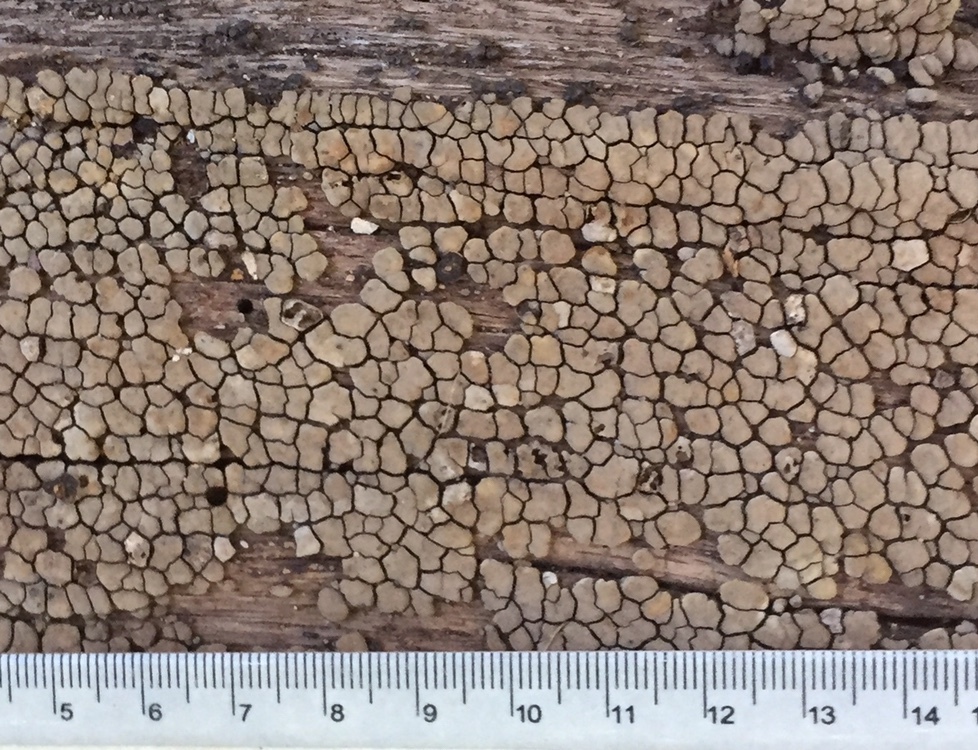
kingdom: Fungi
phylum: Basidiomycota
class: Agaricomycetes
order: Russulales
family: Stereaceae
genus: Xylobolus
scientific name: Xylobolus frustulatus
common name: Ceramic parchment
